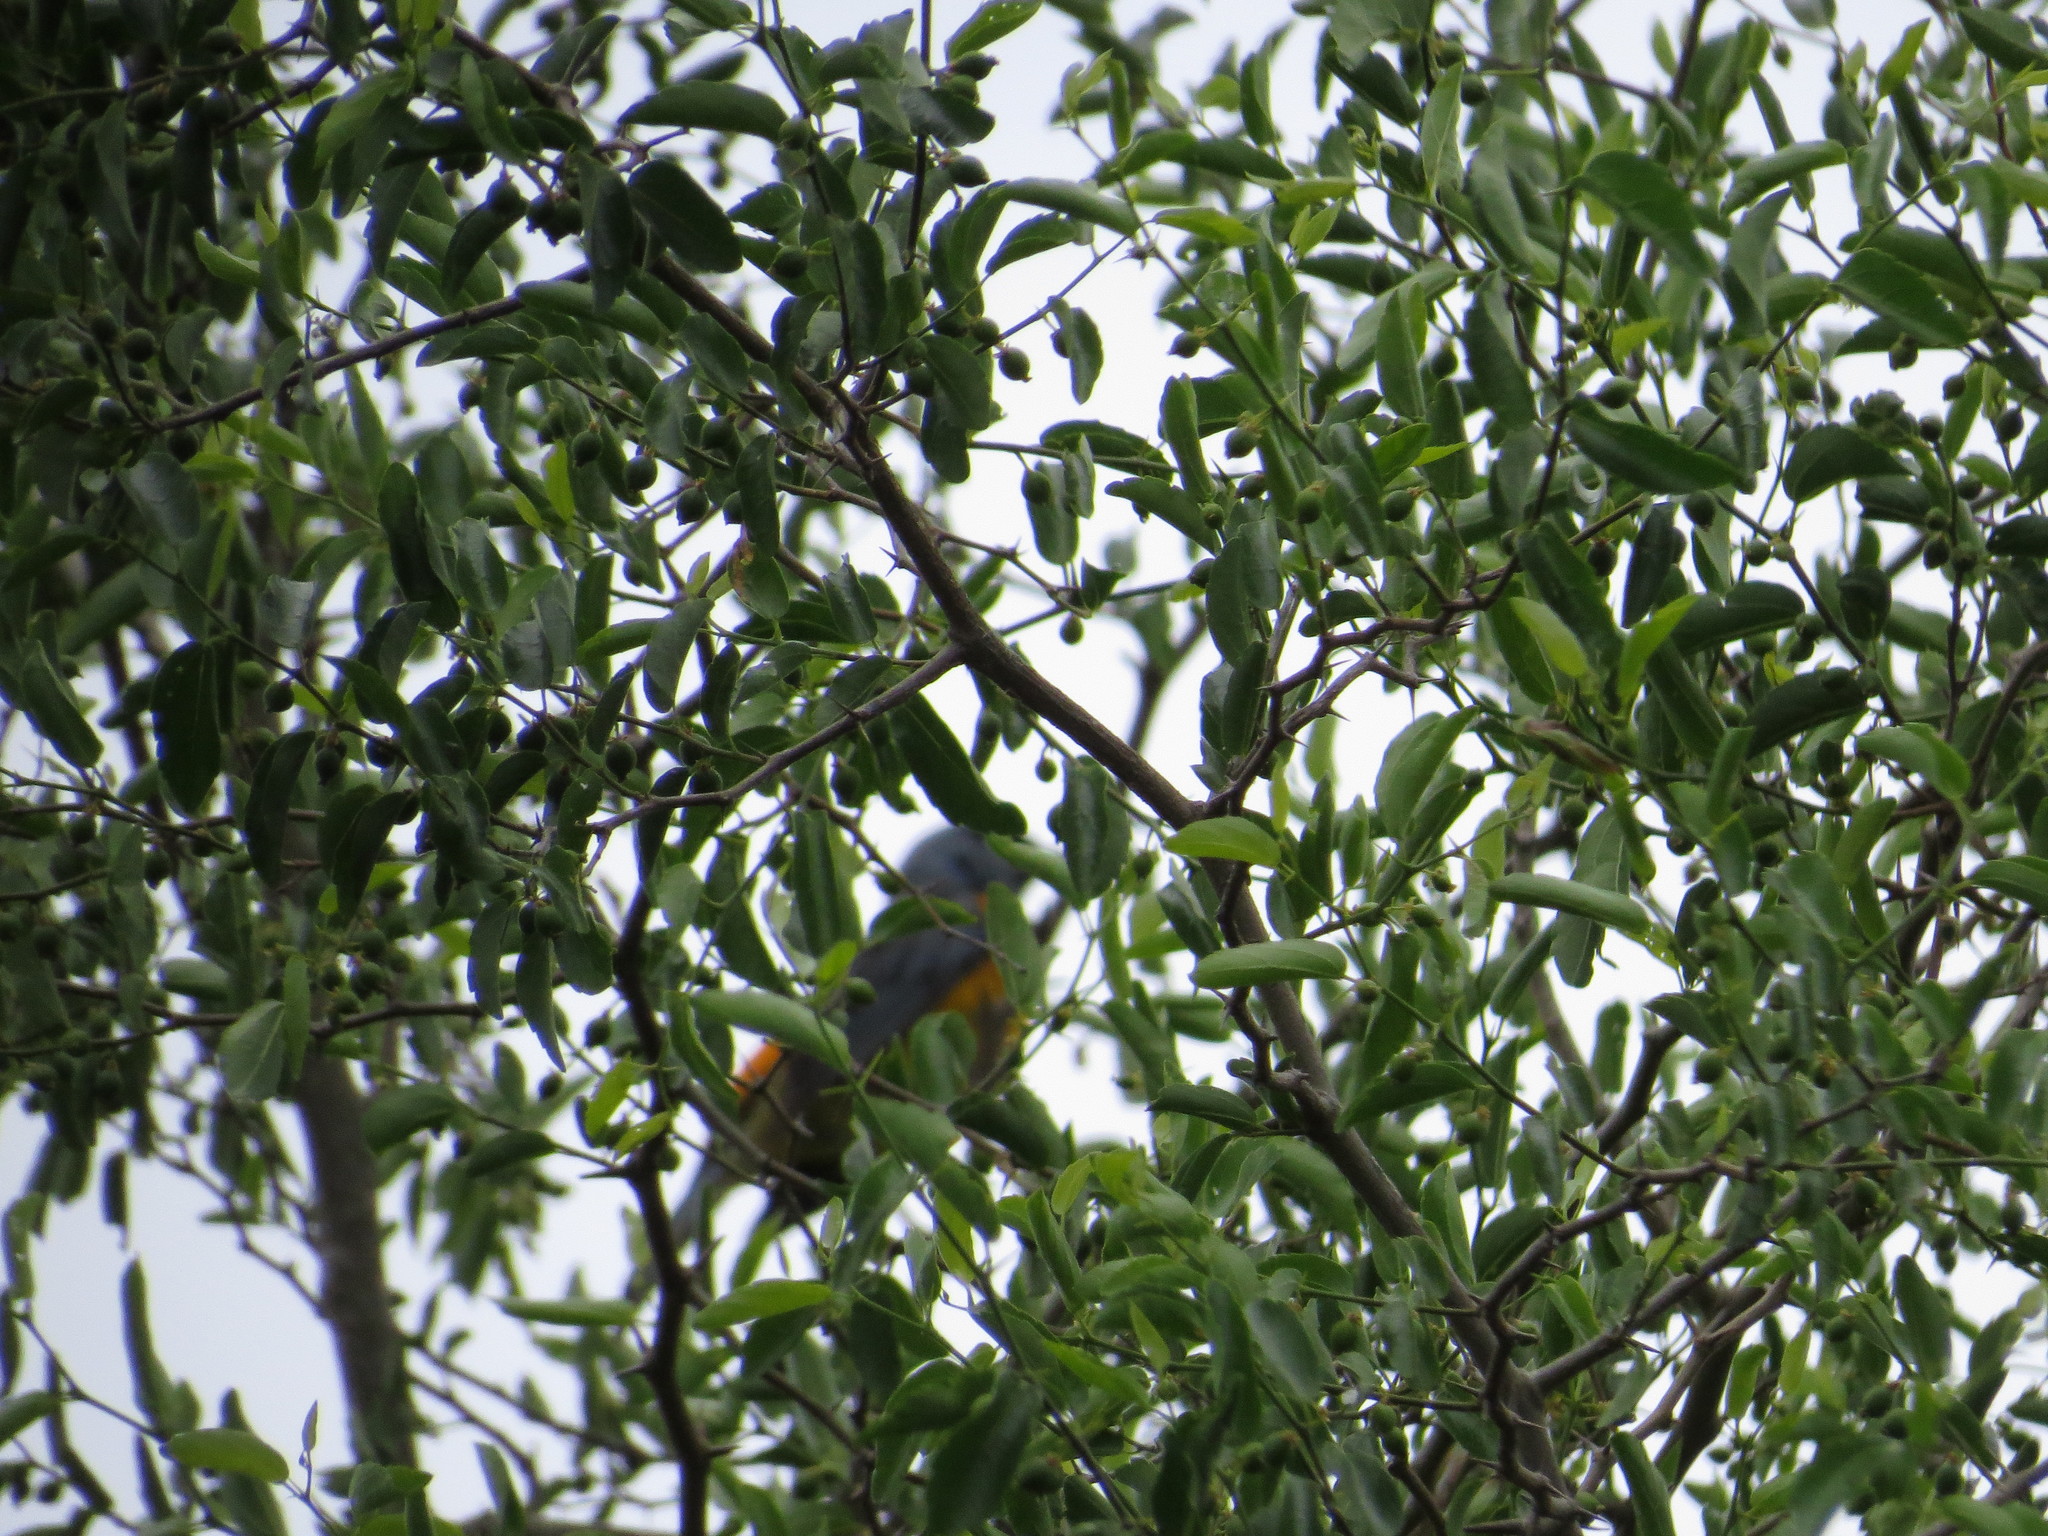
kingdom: Animalia
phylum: Chordata
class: Aves
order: Passeriformes
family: Thraupidae
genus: Rauenia
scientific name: Rauenia bonariensis
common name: Blue-and-yellow tanager
